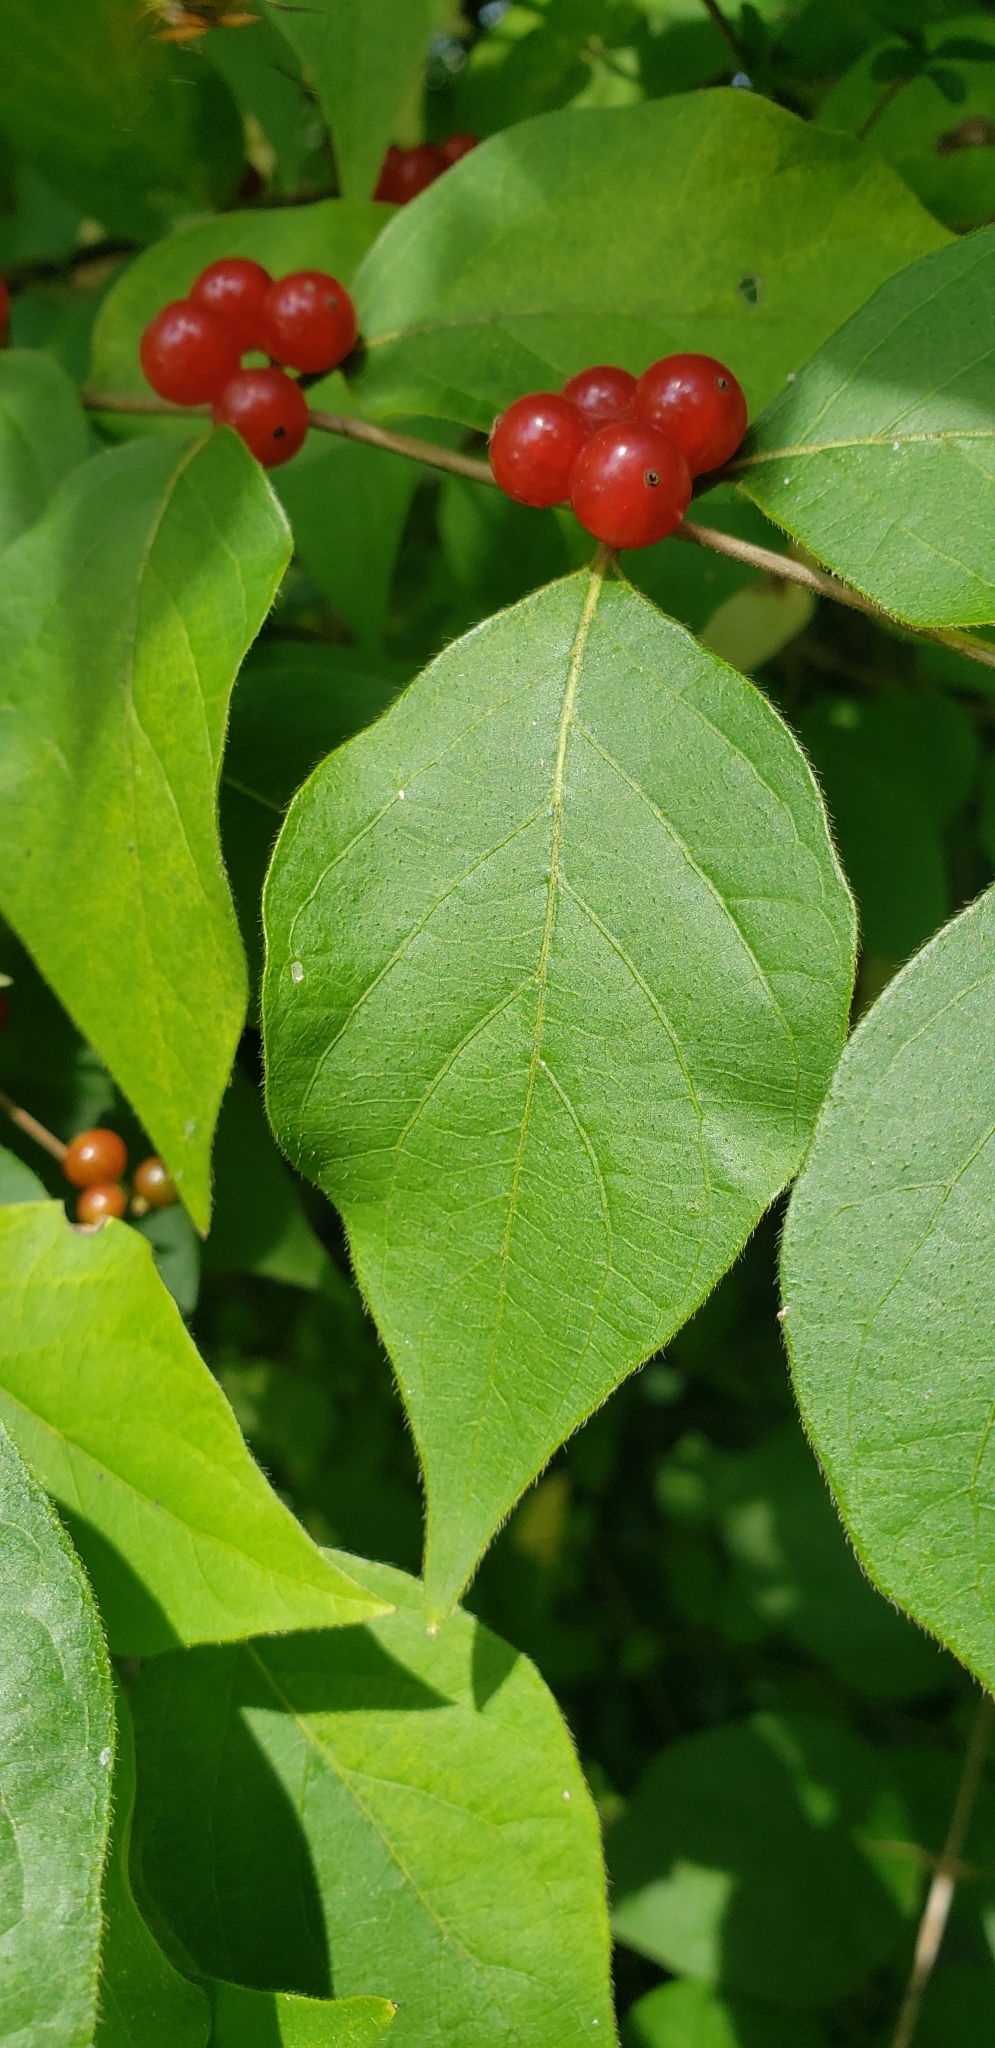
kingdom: Plantae
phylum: Tracheophyta
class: Magnoliopsida
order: Dipsacales
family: Caprifoliaceae
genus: Lonicera
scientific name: Lonicera maackii
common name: Amur honeysuckle
